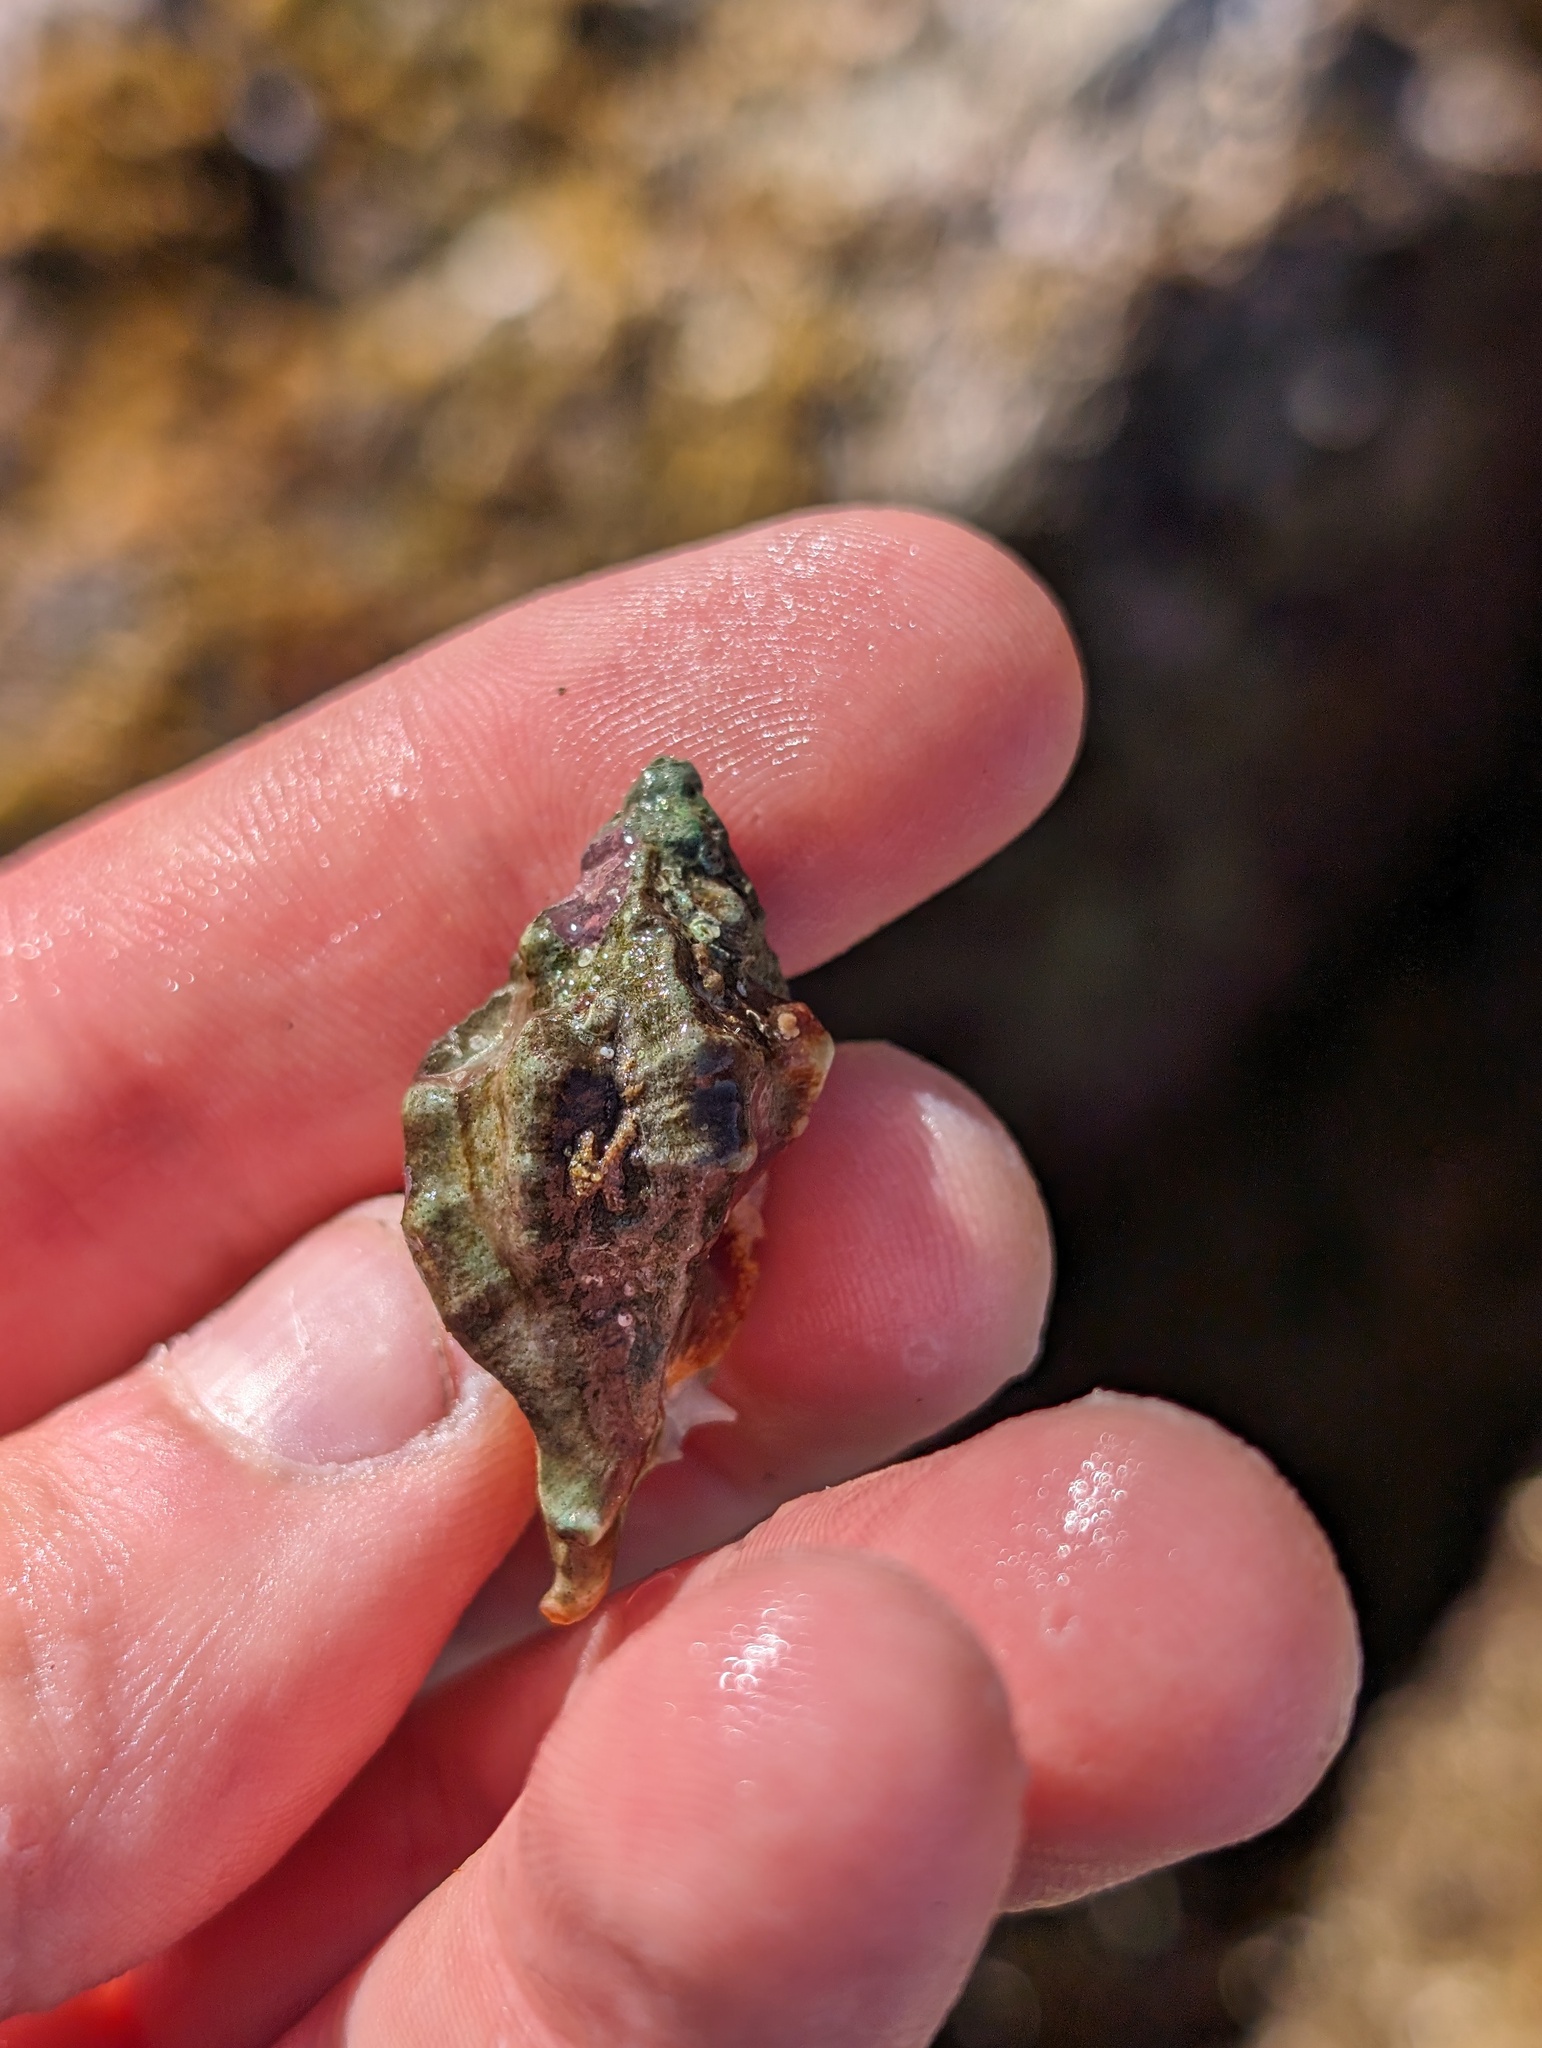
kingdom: Animalia
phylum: Mollusca
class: Gastropoda
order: Neogastropoda
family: Muricidae
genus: Ceratostoma
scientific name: Ceratostoma nuttalli
